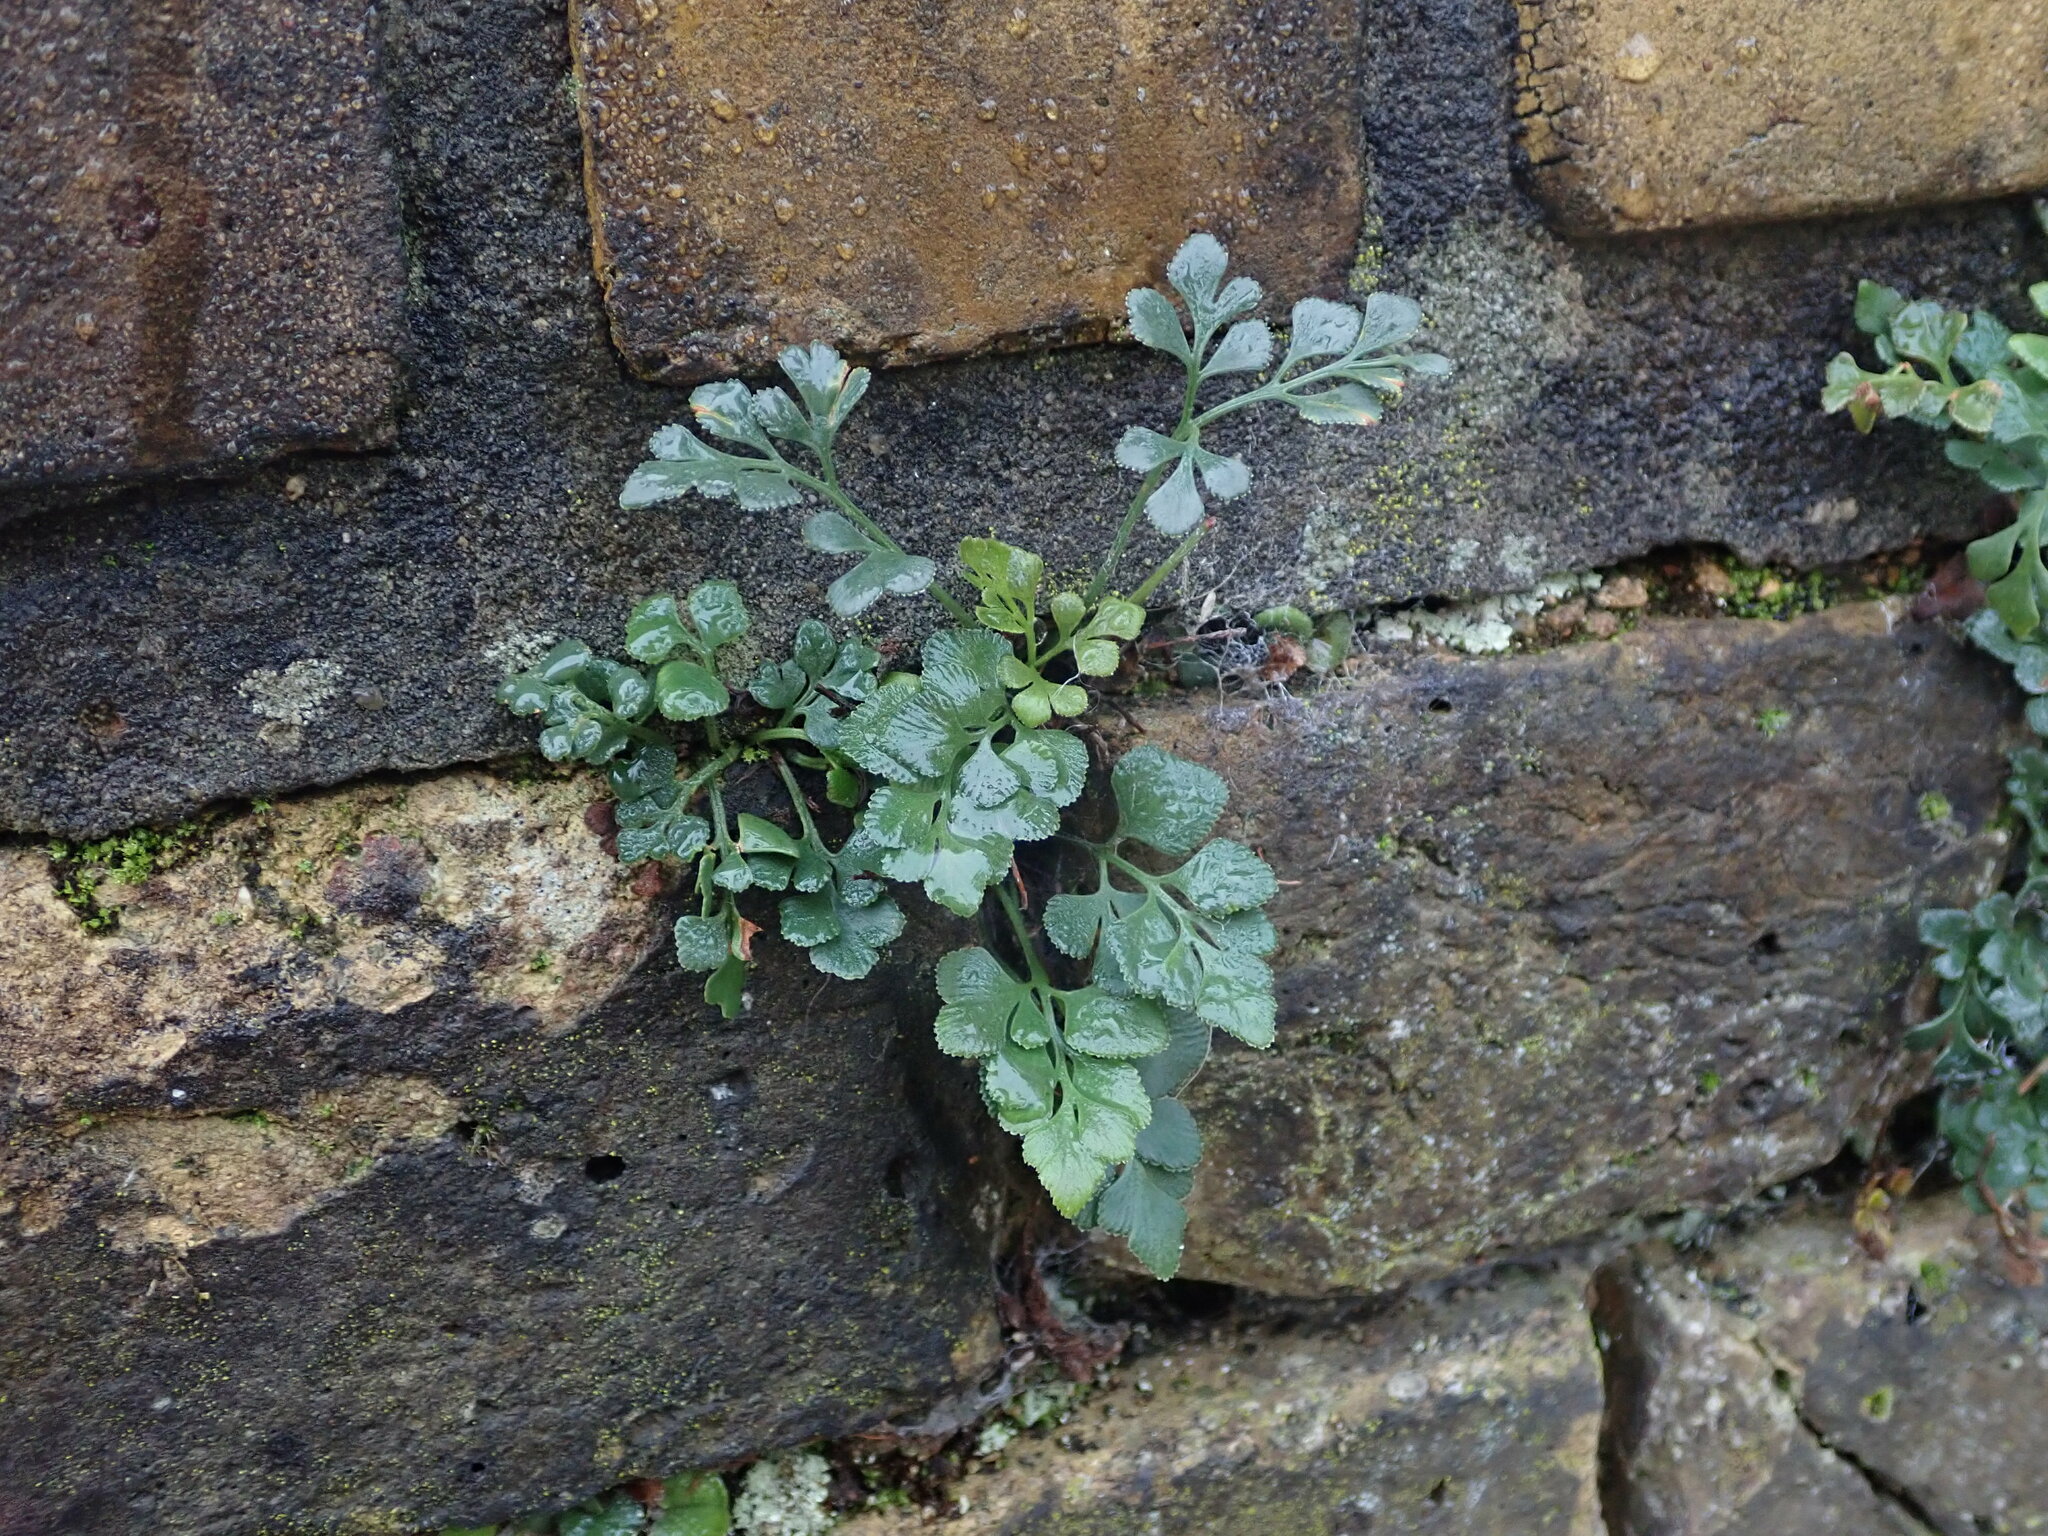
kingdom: Plantae
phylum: Tracheophyta
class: Polypodiopsida
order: Polypodiales
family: Aspleniaceae
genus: Asplenium
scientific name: Asplenium ruta-muraria
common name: Wall-rue
